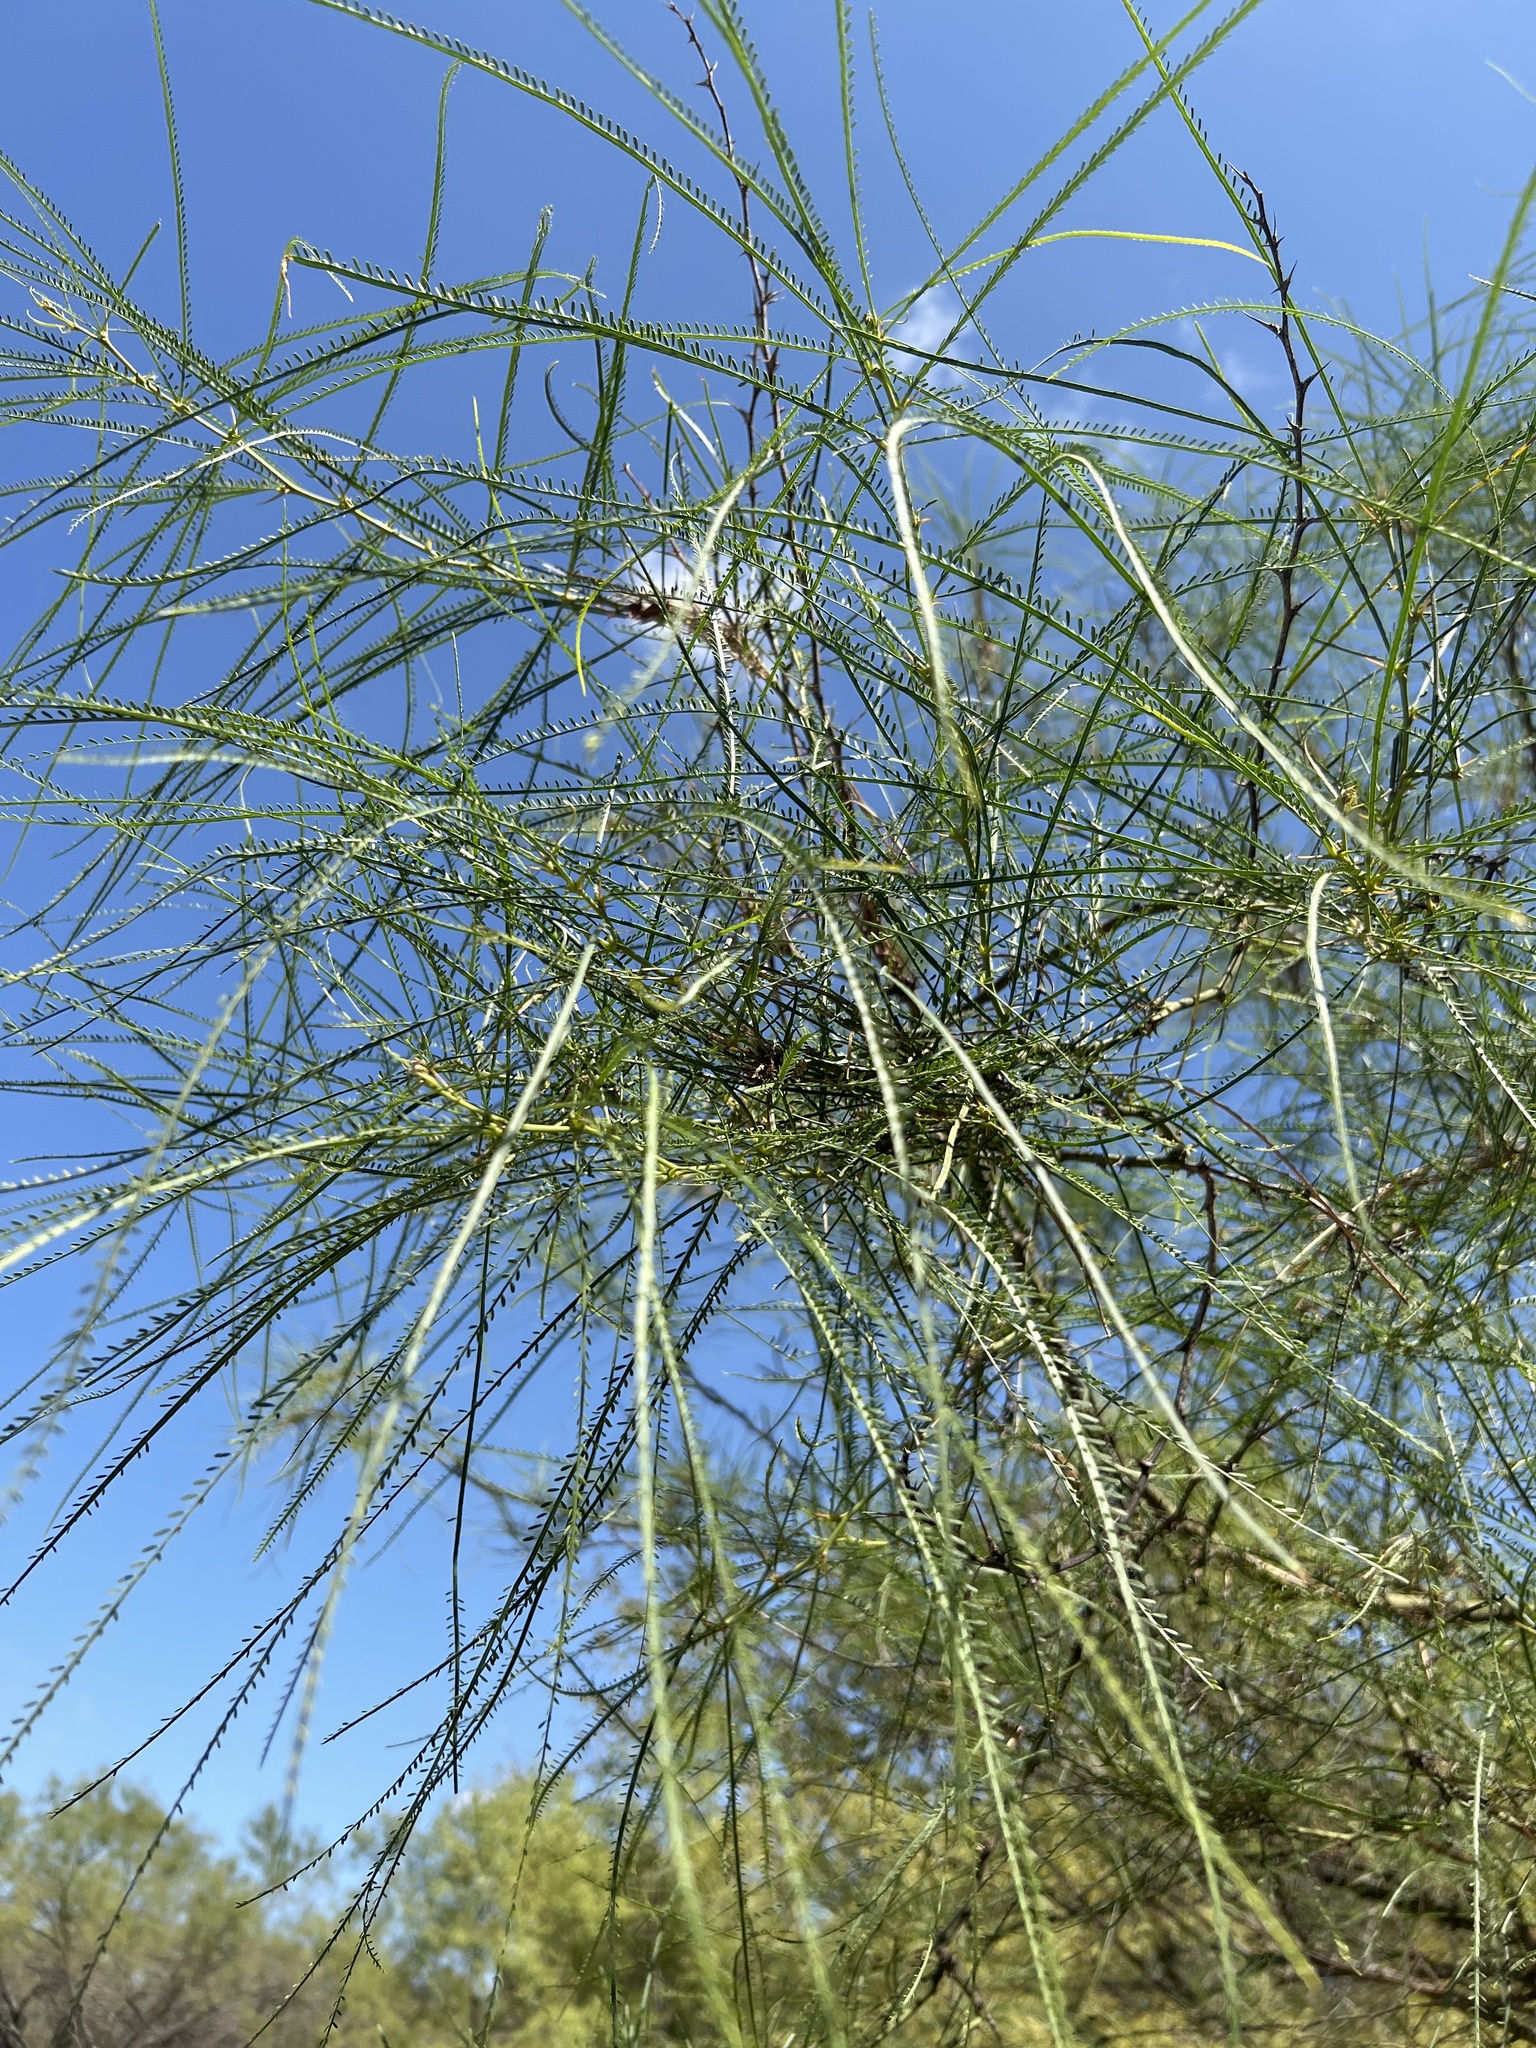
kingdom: Plantae
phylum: Tracheophyta
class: Magnoliopsida
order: Fabales
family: Fabaceae
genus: Parkinsonia
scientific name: Parkinsonia aculeata
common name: Jerusalem thorn
